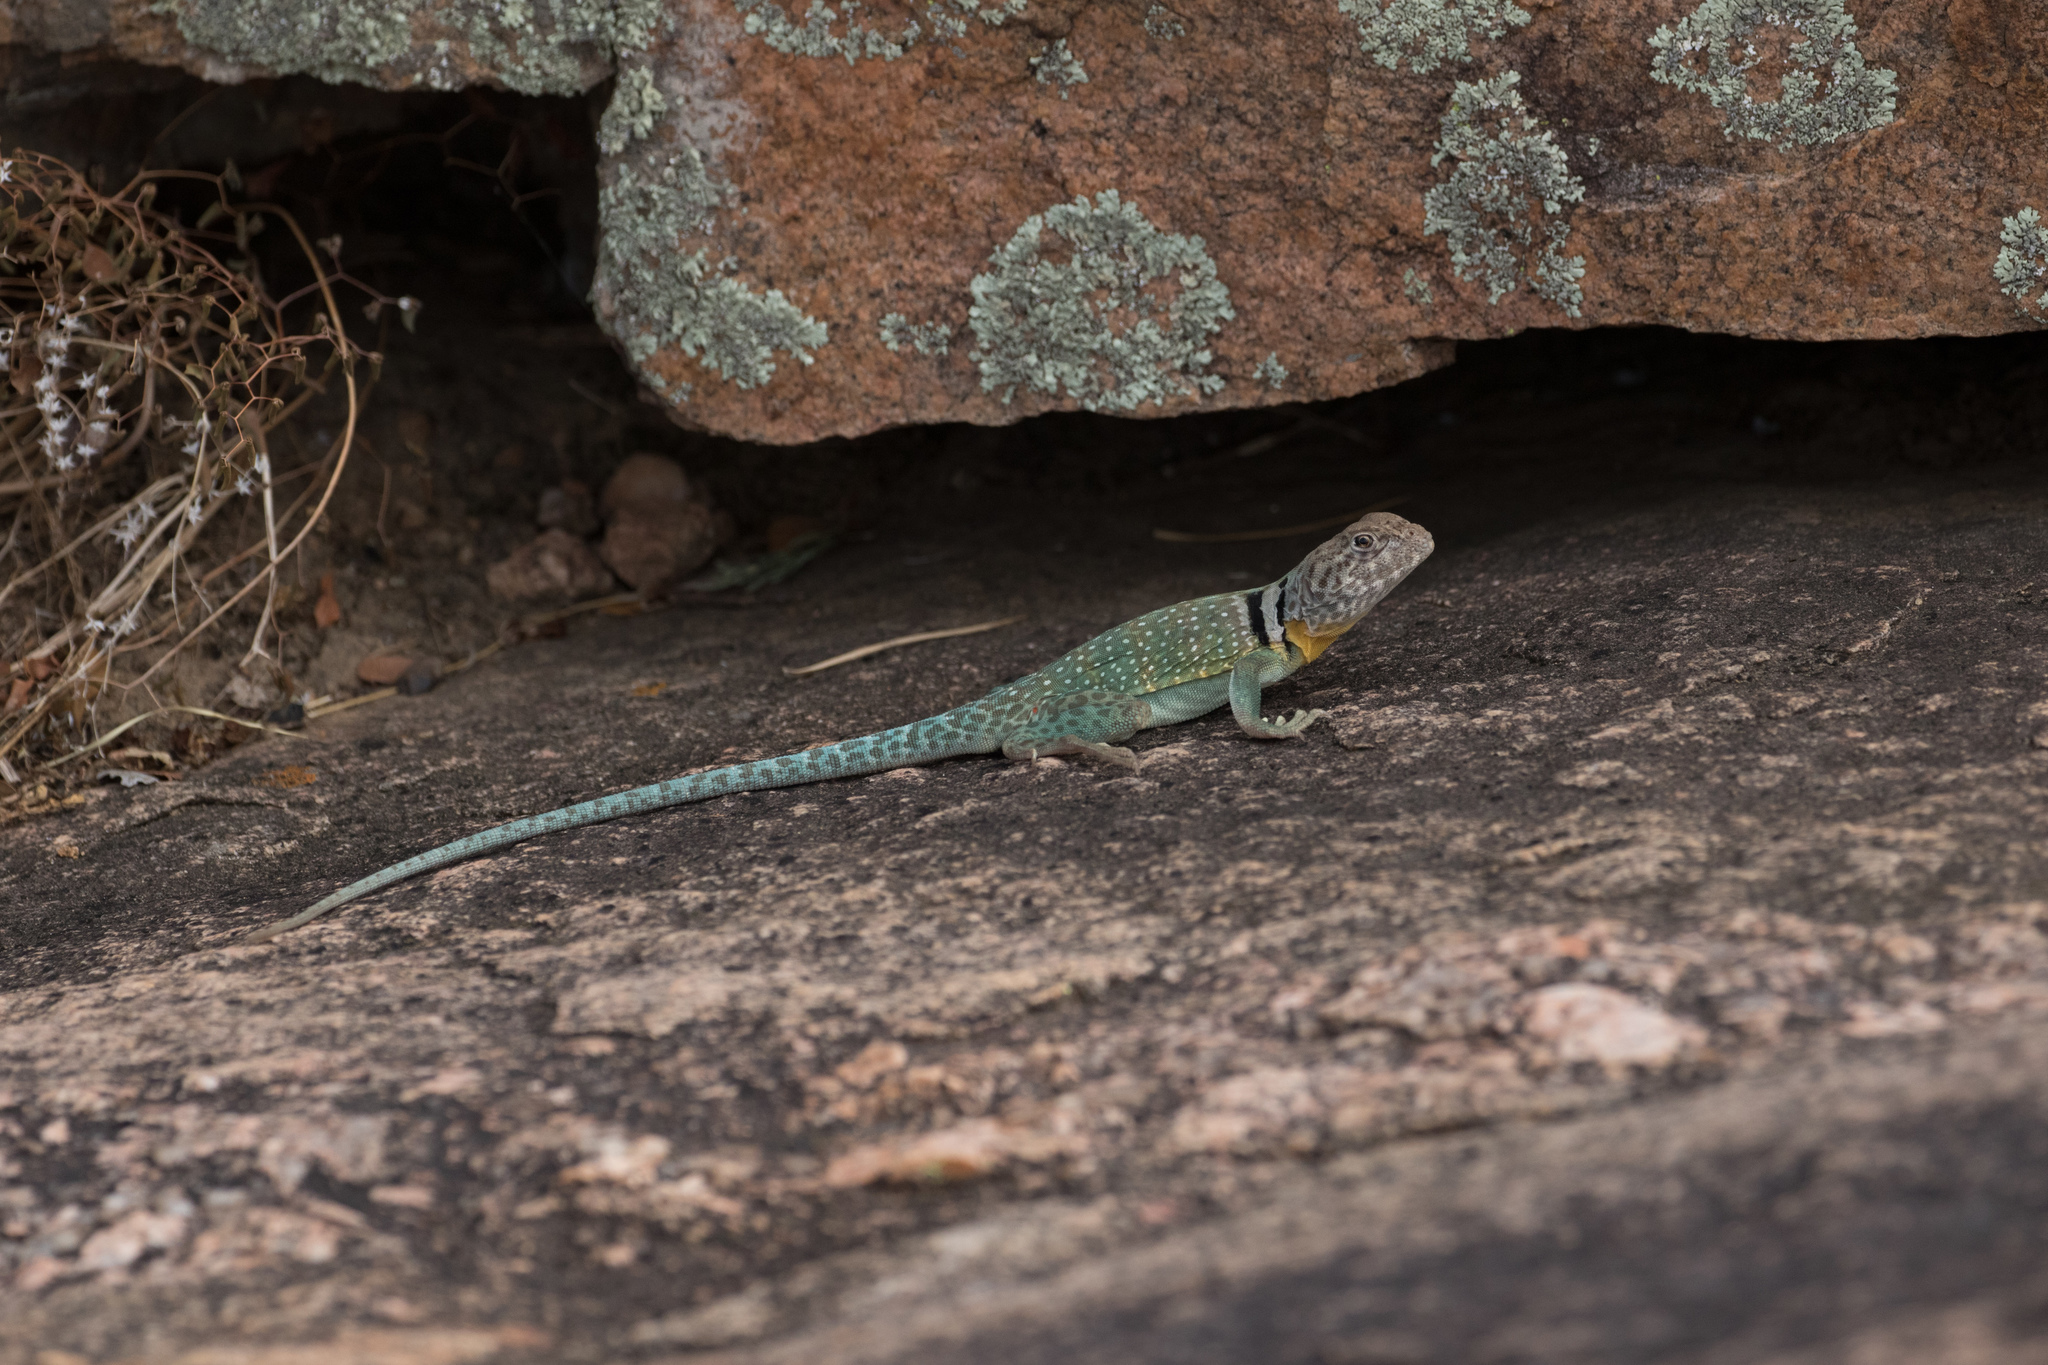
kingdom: Animalia
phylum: Chordata
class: Squamata
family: Crotaphytidae
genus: Crotaphytus
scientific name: Crotaphytus collaris
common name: Collared lizard
